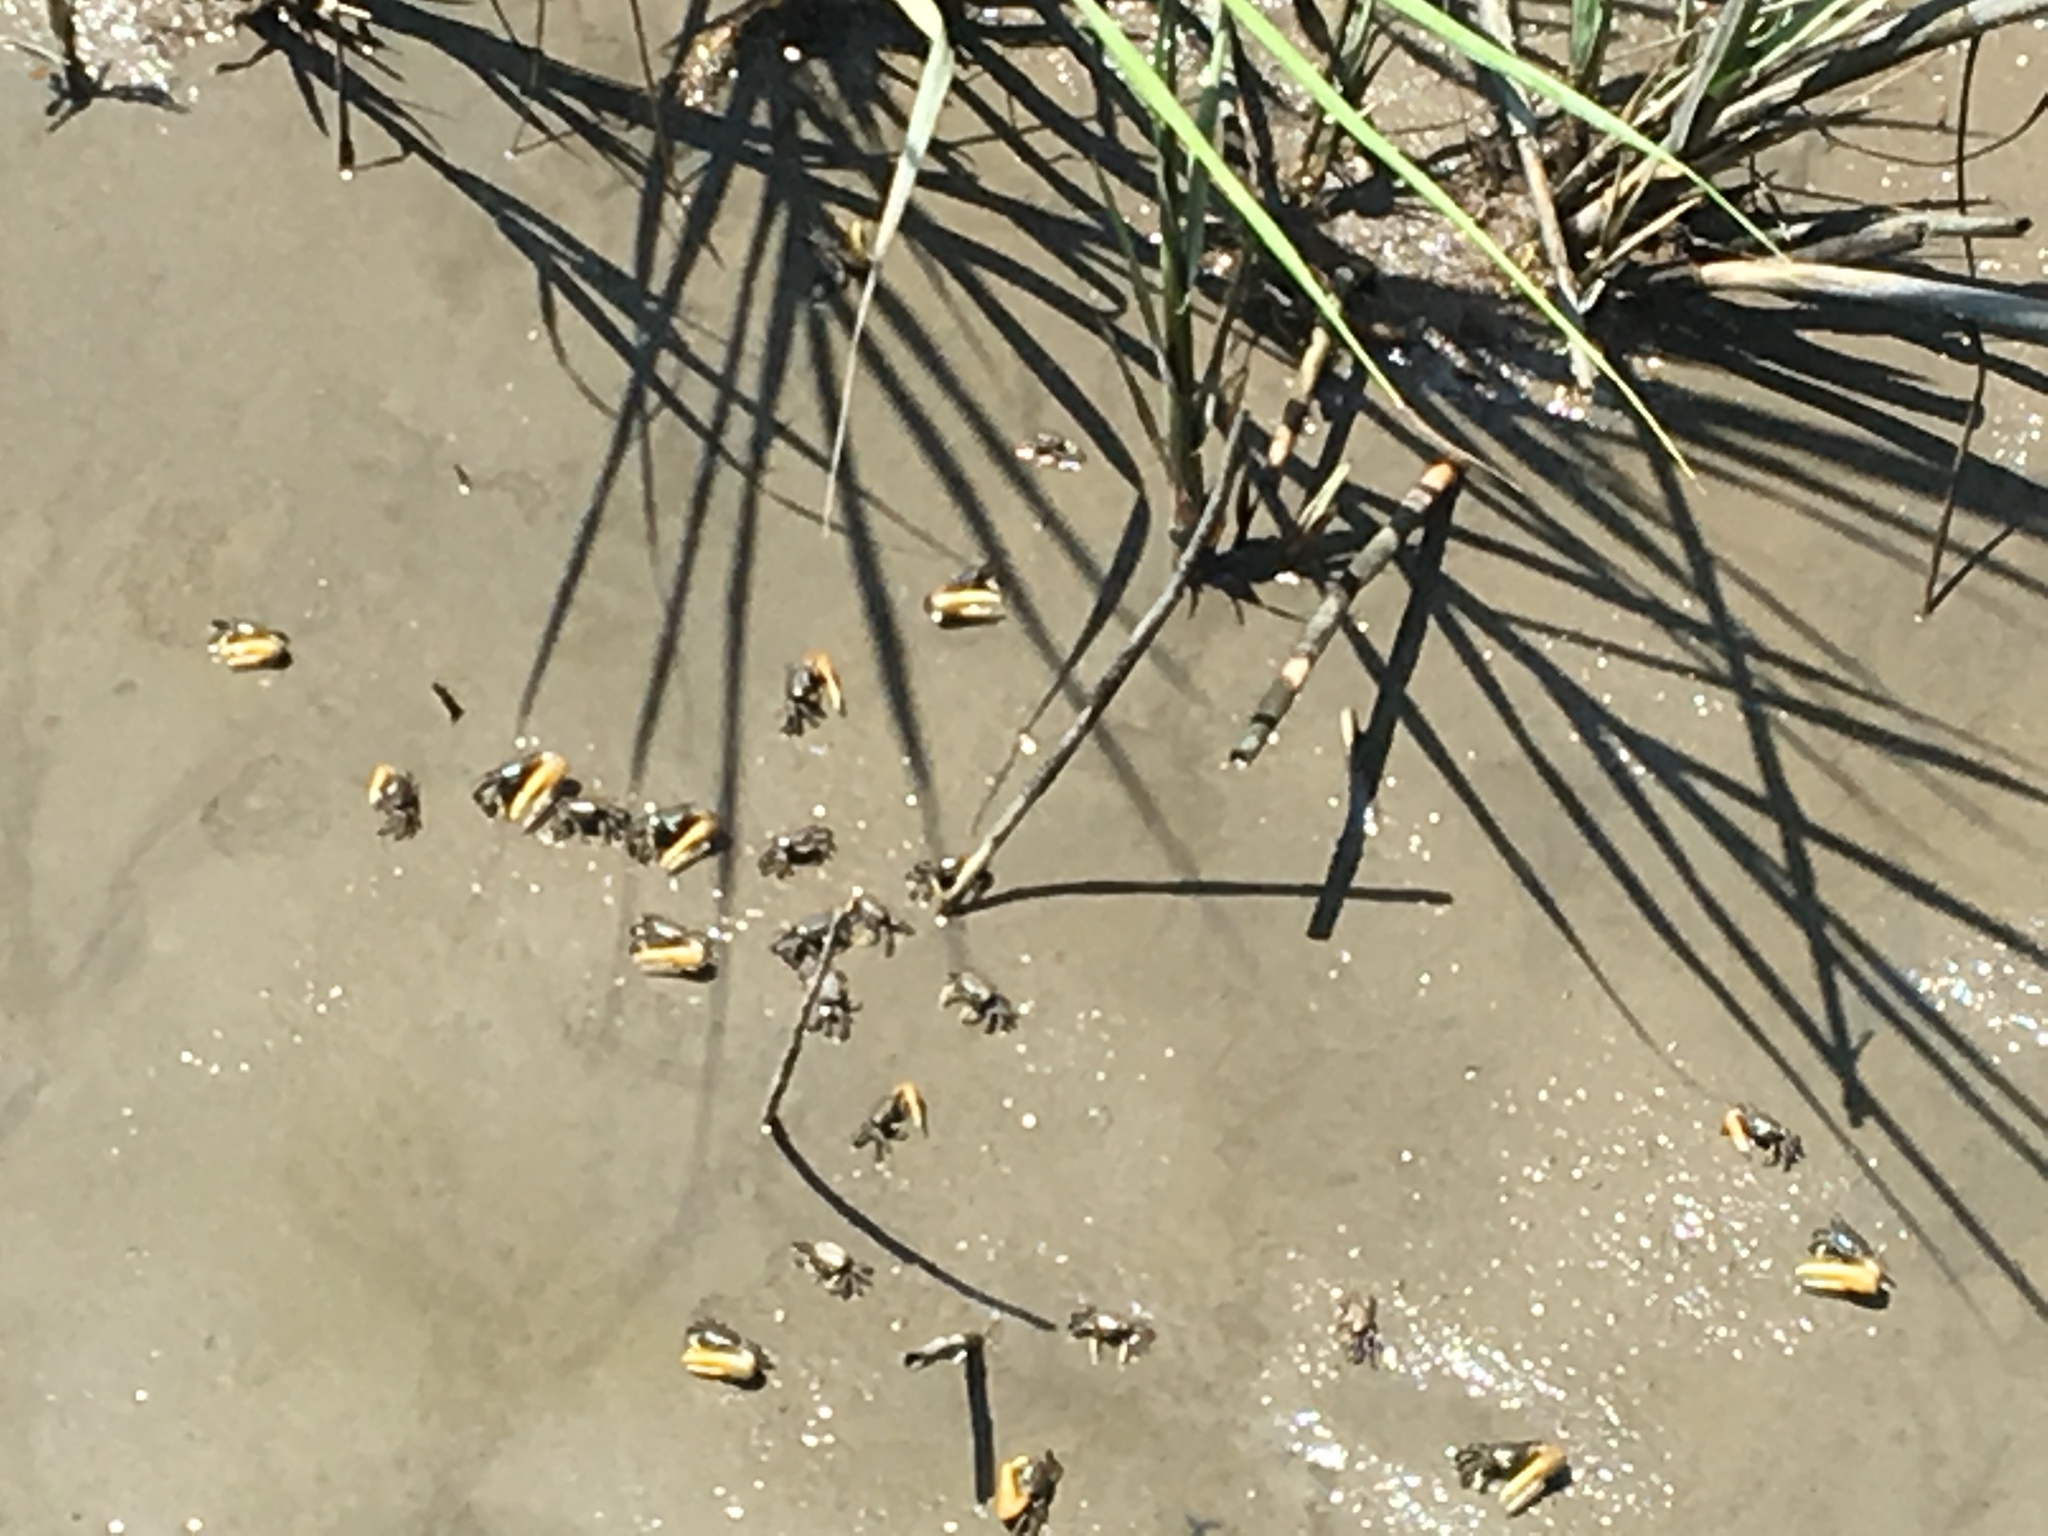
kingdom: Animalia
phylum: Arthropoda
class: Malacostraca
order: Decapoda
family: Ocypodidae
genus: Minuca
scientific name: Minuca pugnax
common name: Mud fiddler crab
